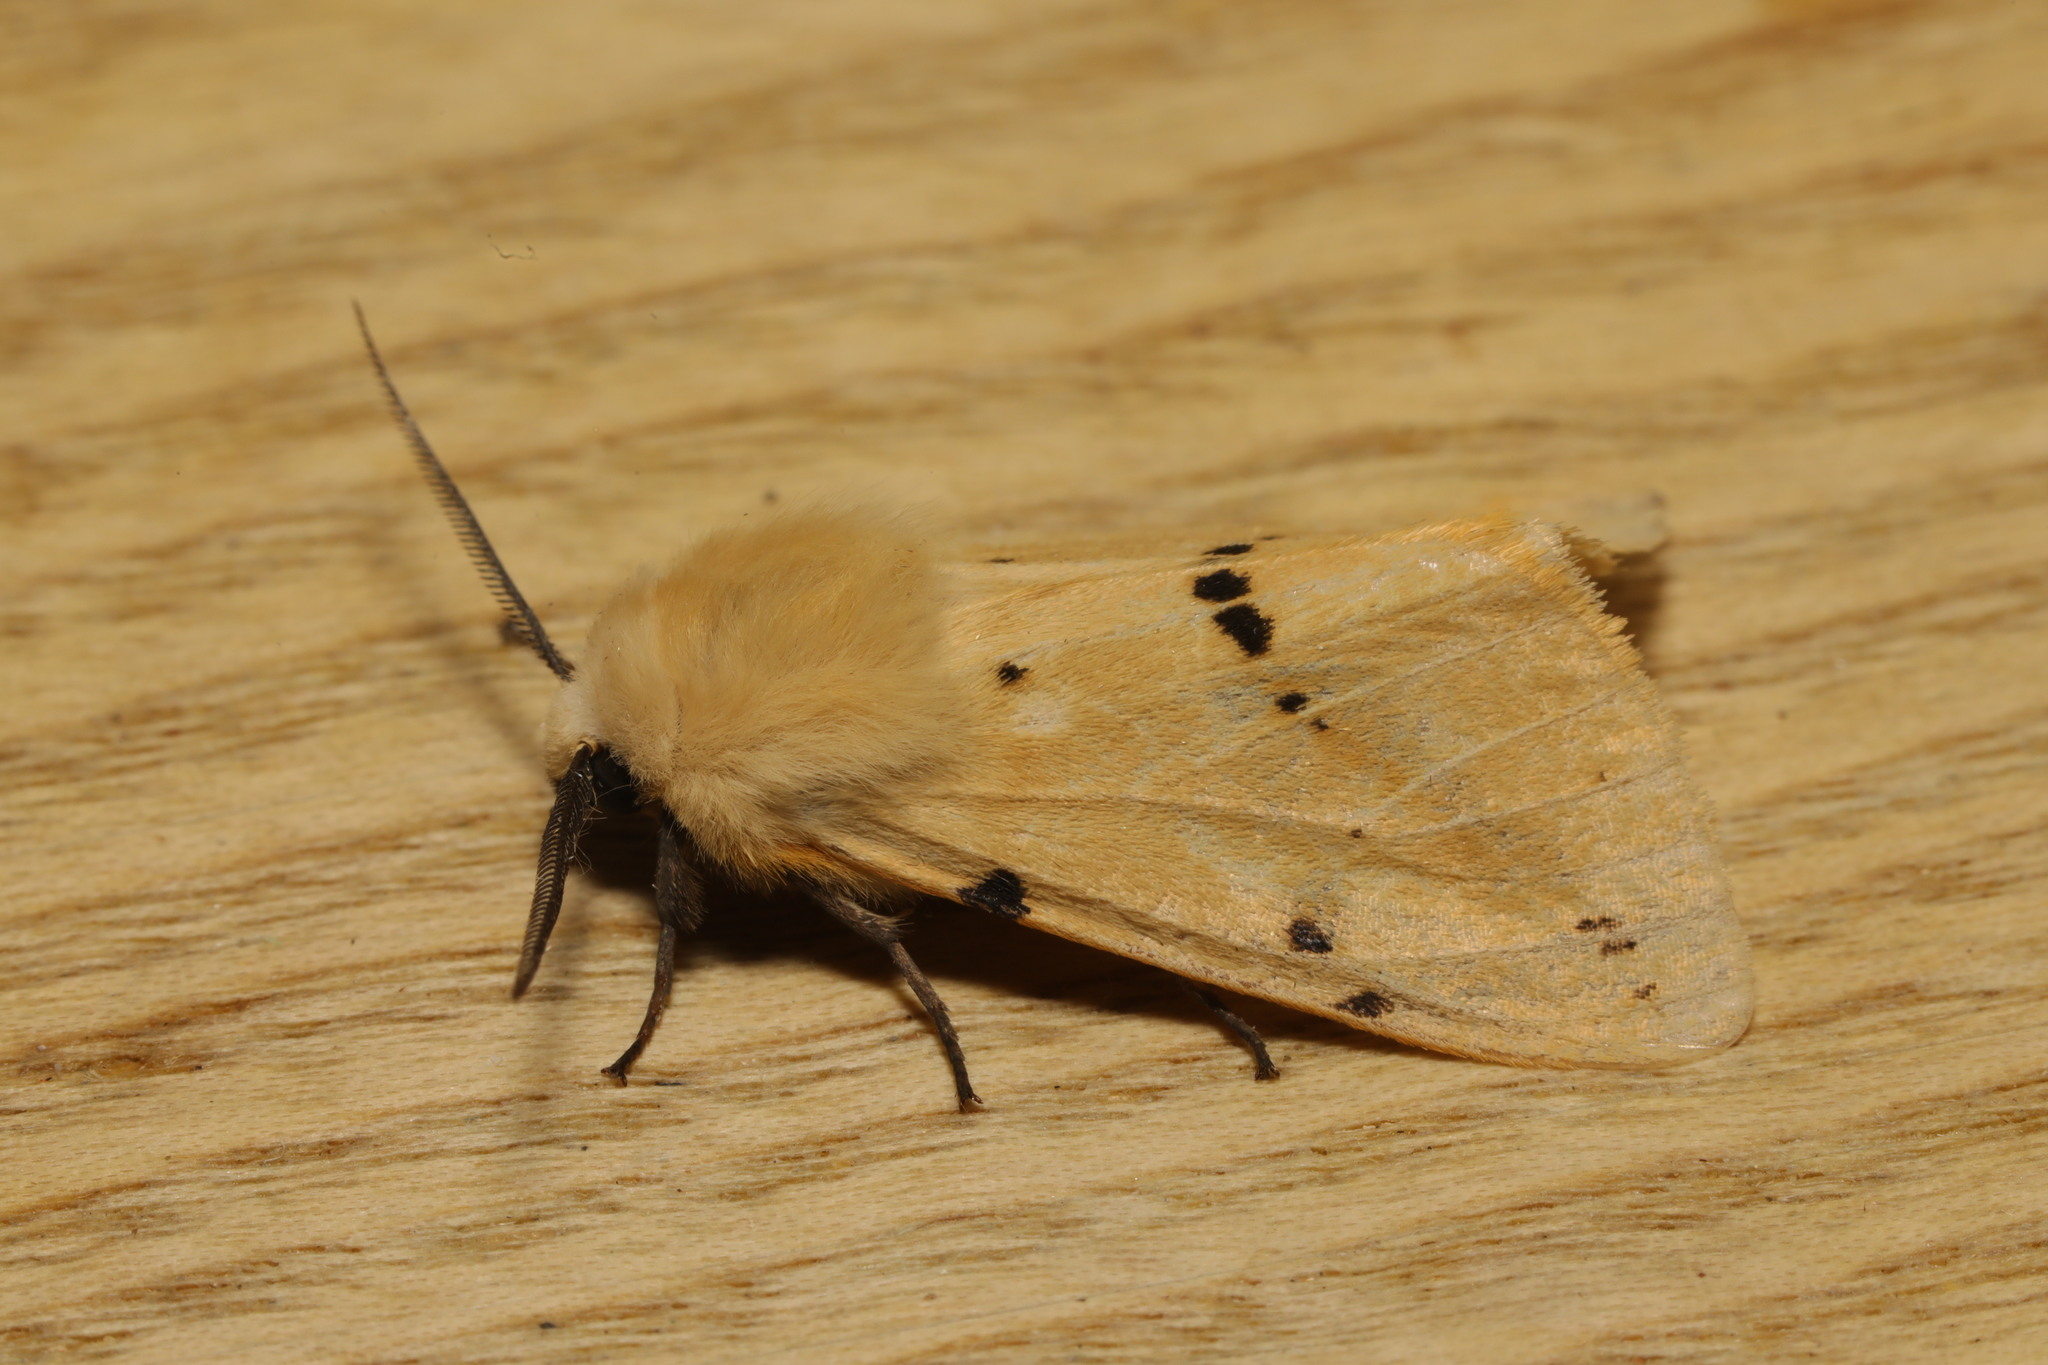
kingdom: Animalia
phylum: Arthropoda
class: Insecta
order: Lepidoptera
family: Erebidae
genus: Spilarctia
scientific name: Spilarctia lutea
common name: Buff ermine
